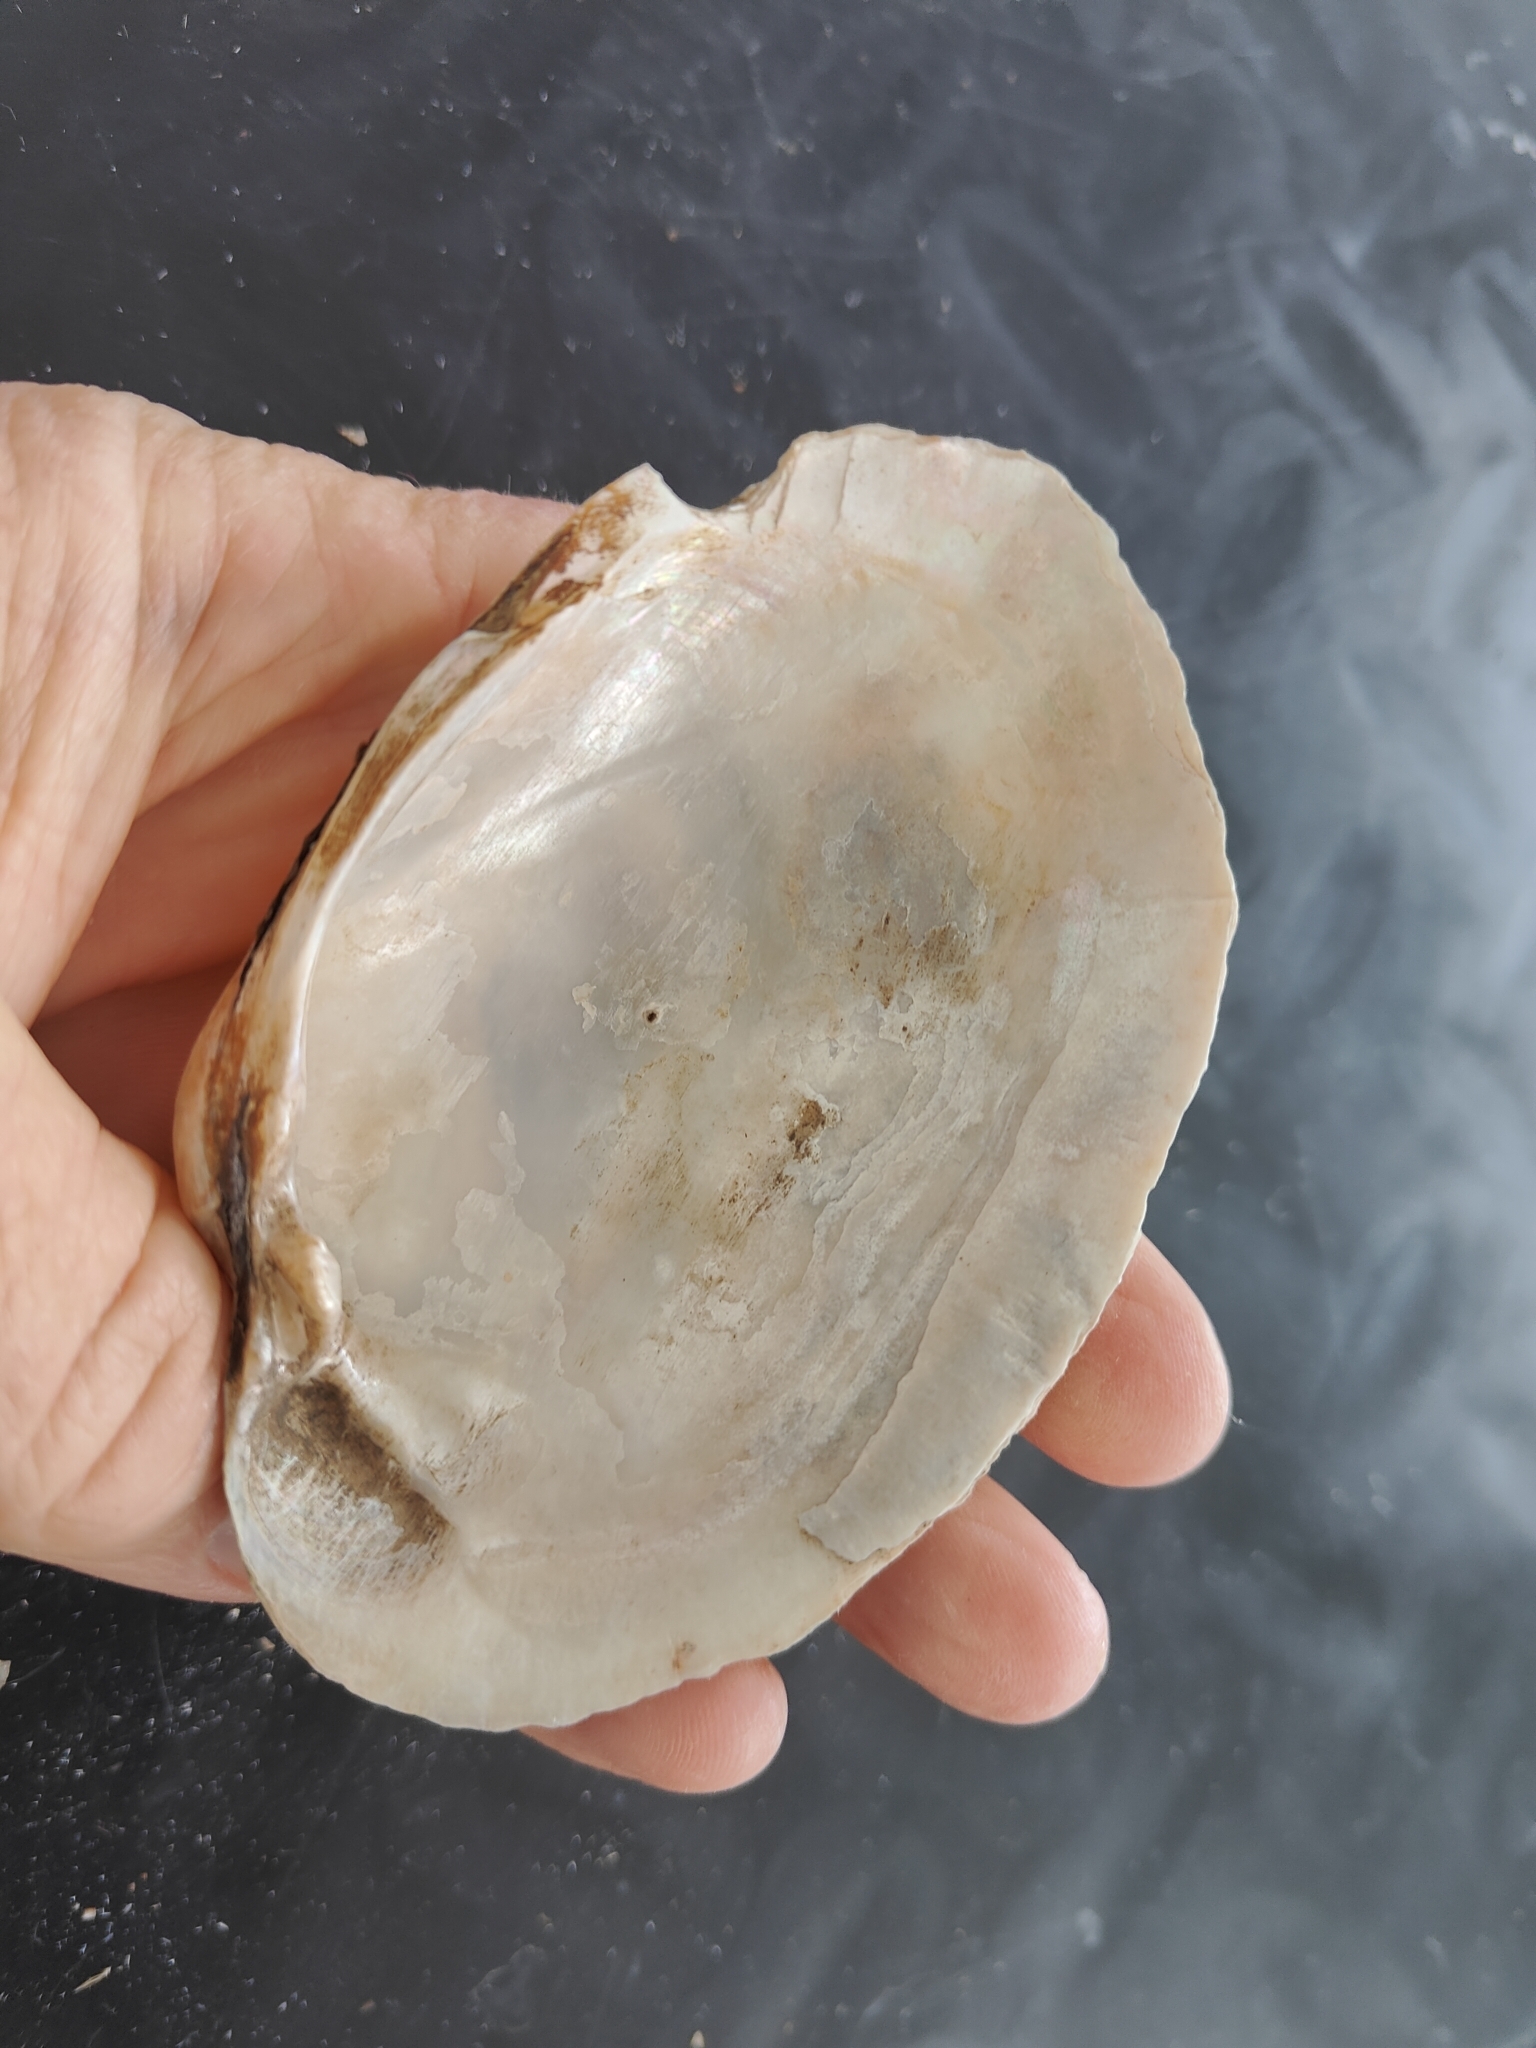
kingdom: Animalia
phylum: Mollusca
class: Bivalvia
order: Unionida
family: Unionidae
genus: Lampsilis
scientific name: Lampsilis cardium
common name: Plain pocketbook
